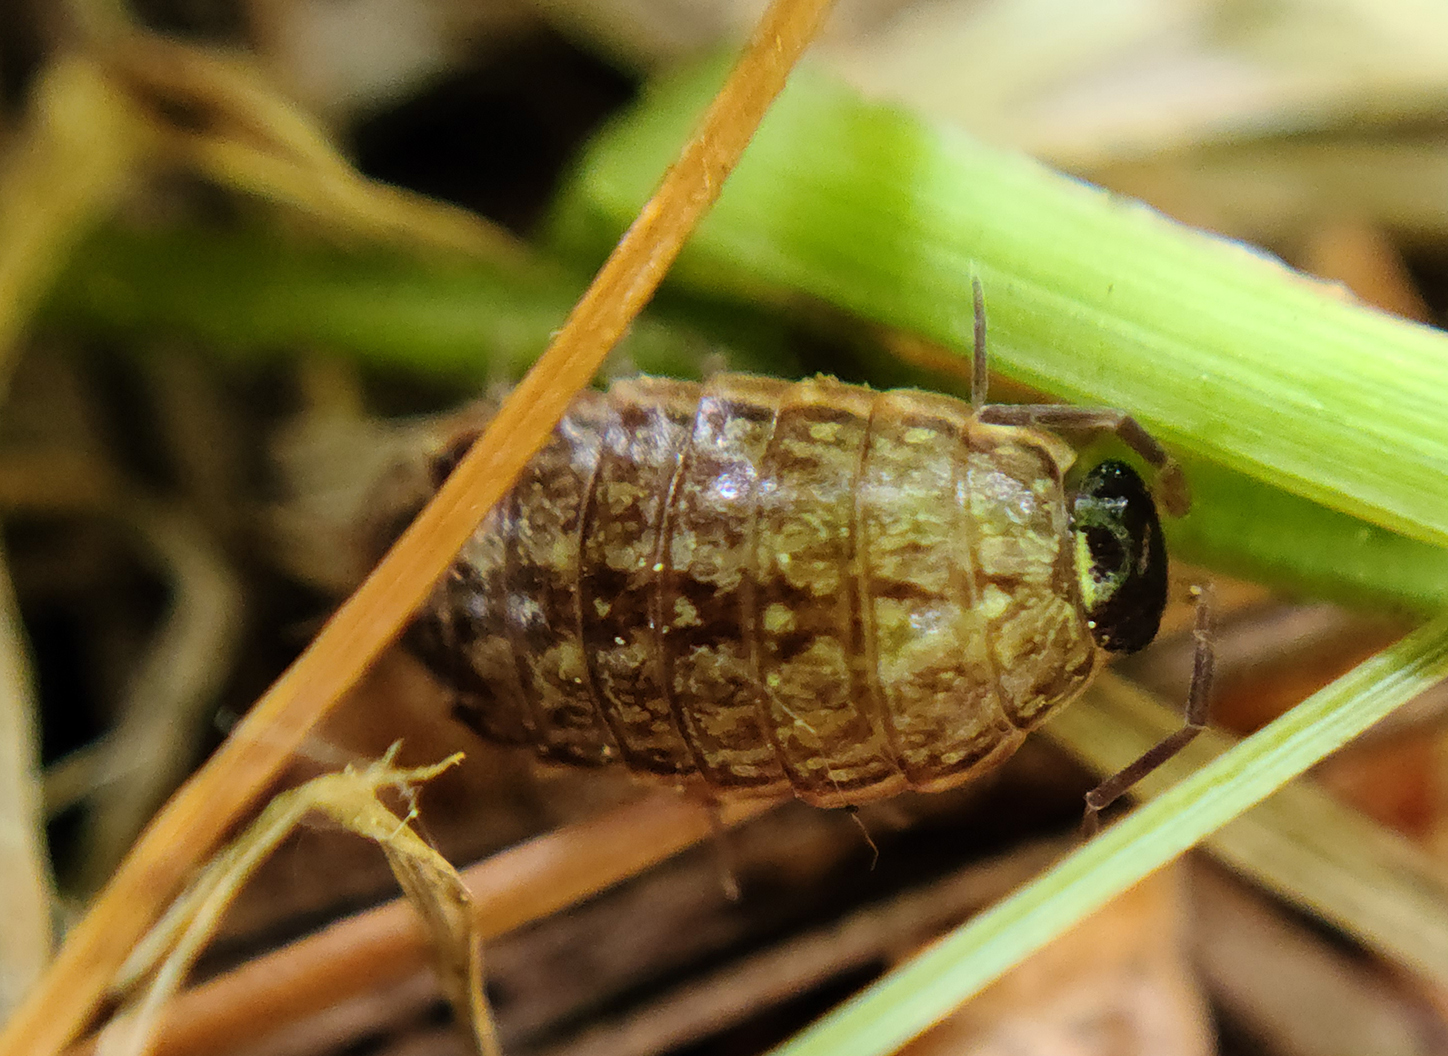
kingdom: Animalia
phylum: Arthropoda
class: Malacostraca
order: Isopoda
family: Philosciidae
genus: Philoscia
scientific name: Philoscia muscorum
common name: Common striped woodlouse
